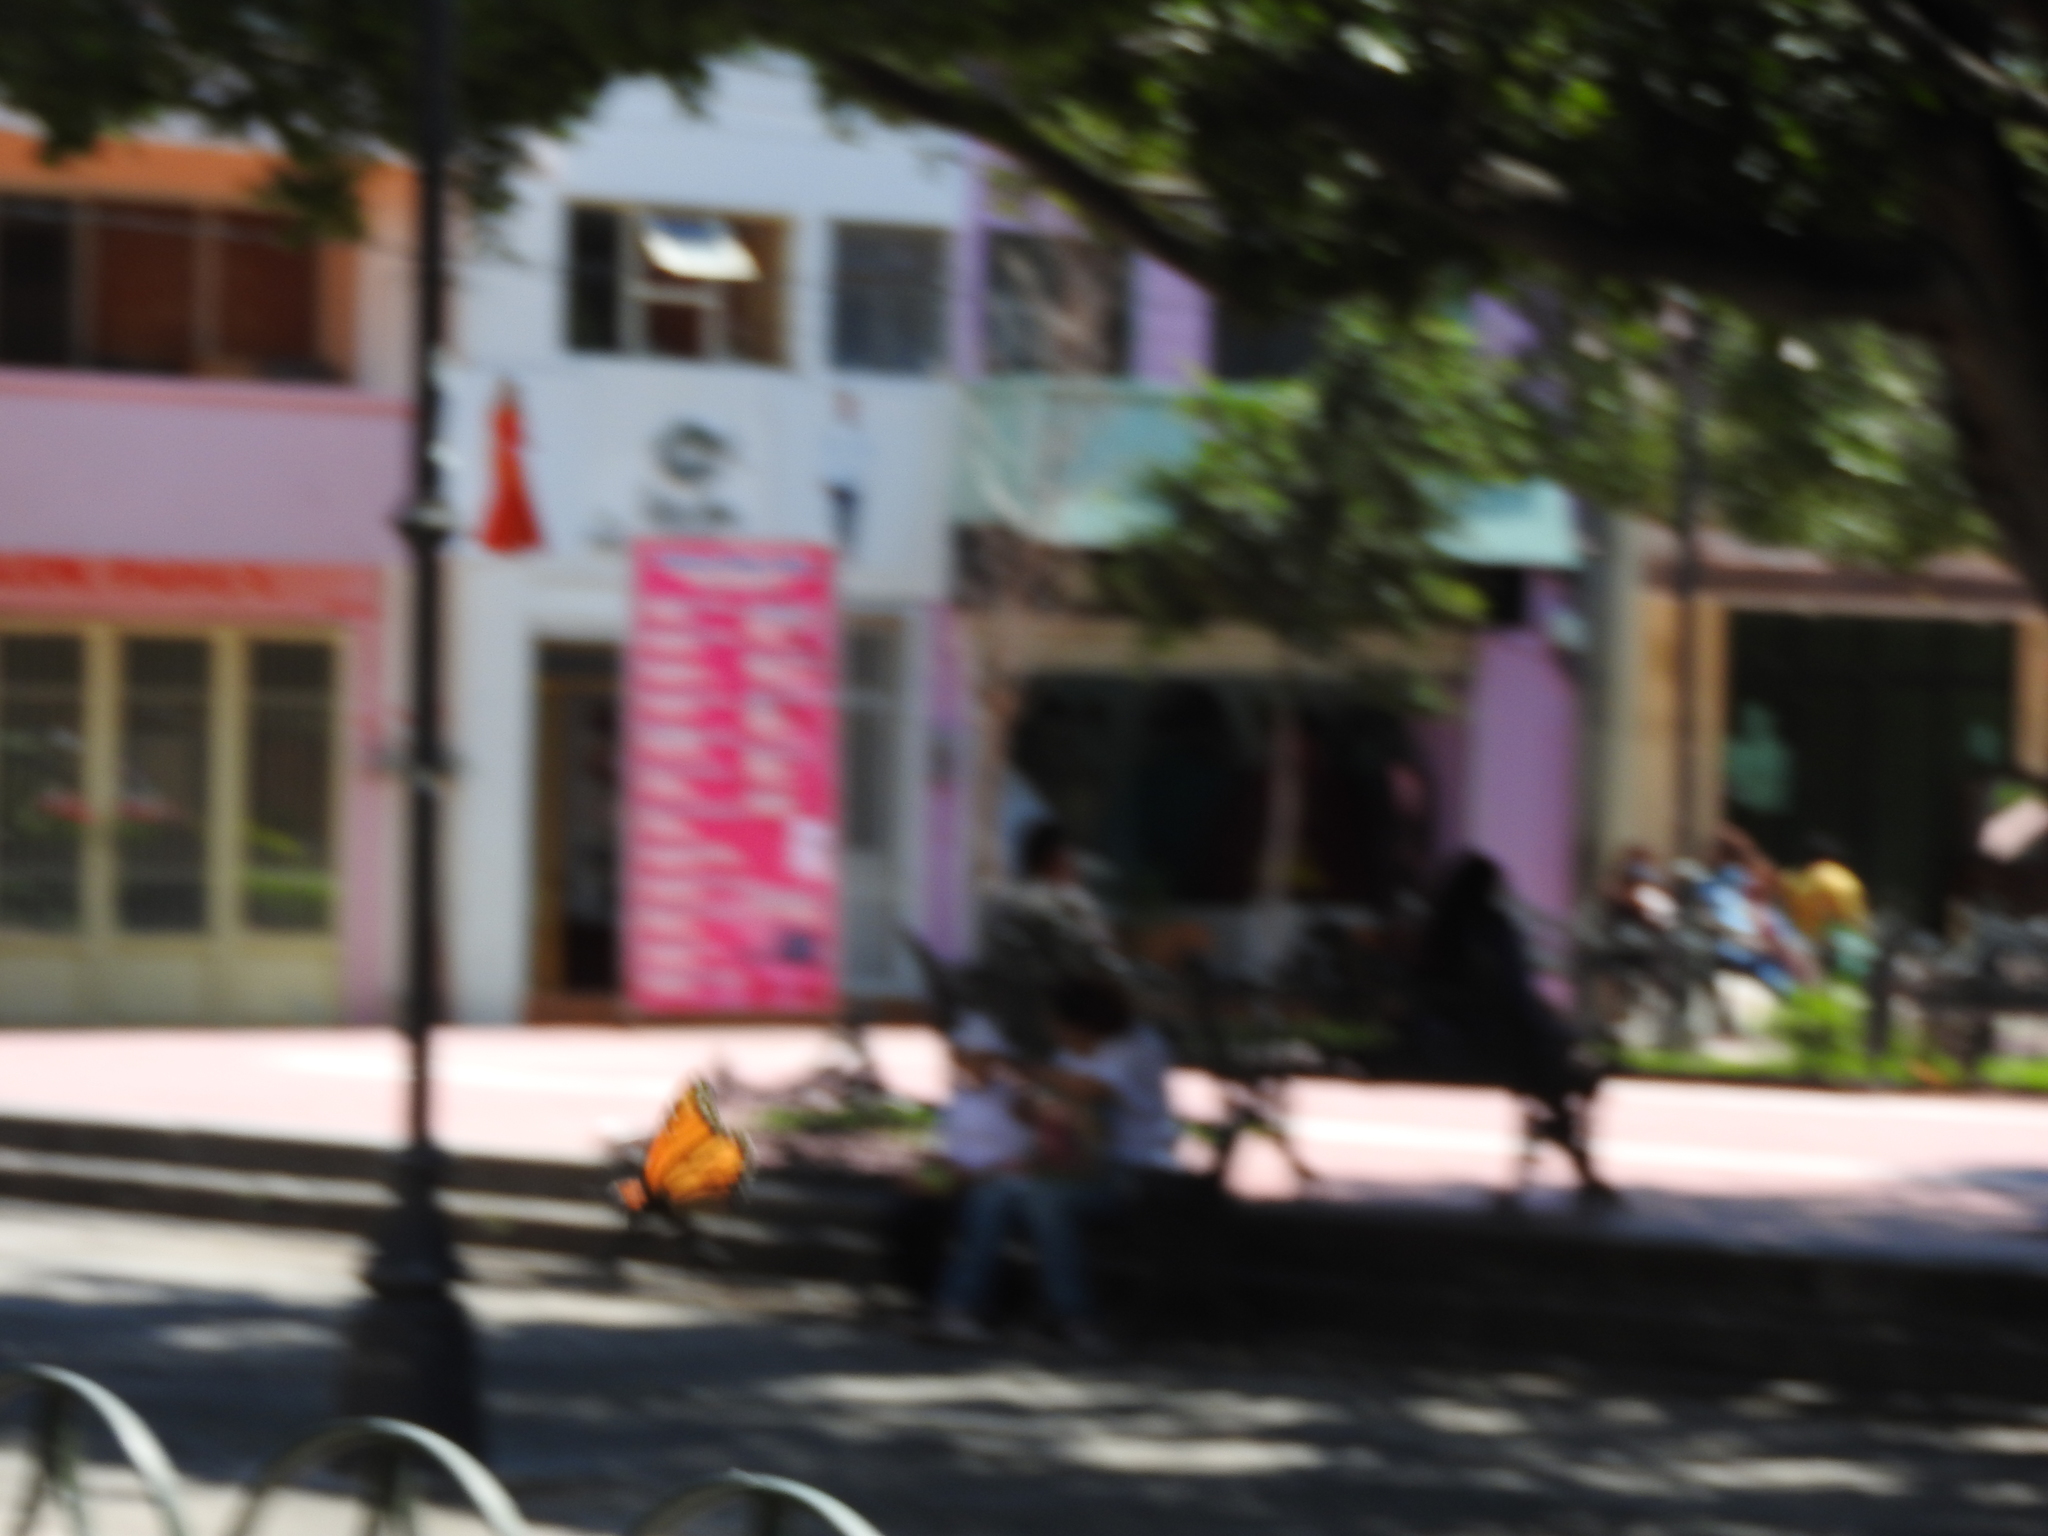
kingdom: Animalia
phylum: Arthropoda
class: Insecta
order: Lepidoptera
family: Nymphalidae
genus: Danaus
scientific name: Danaus plexippus
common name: Monarch
